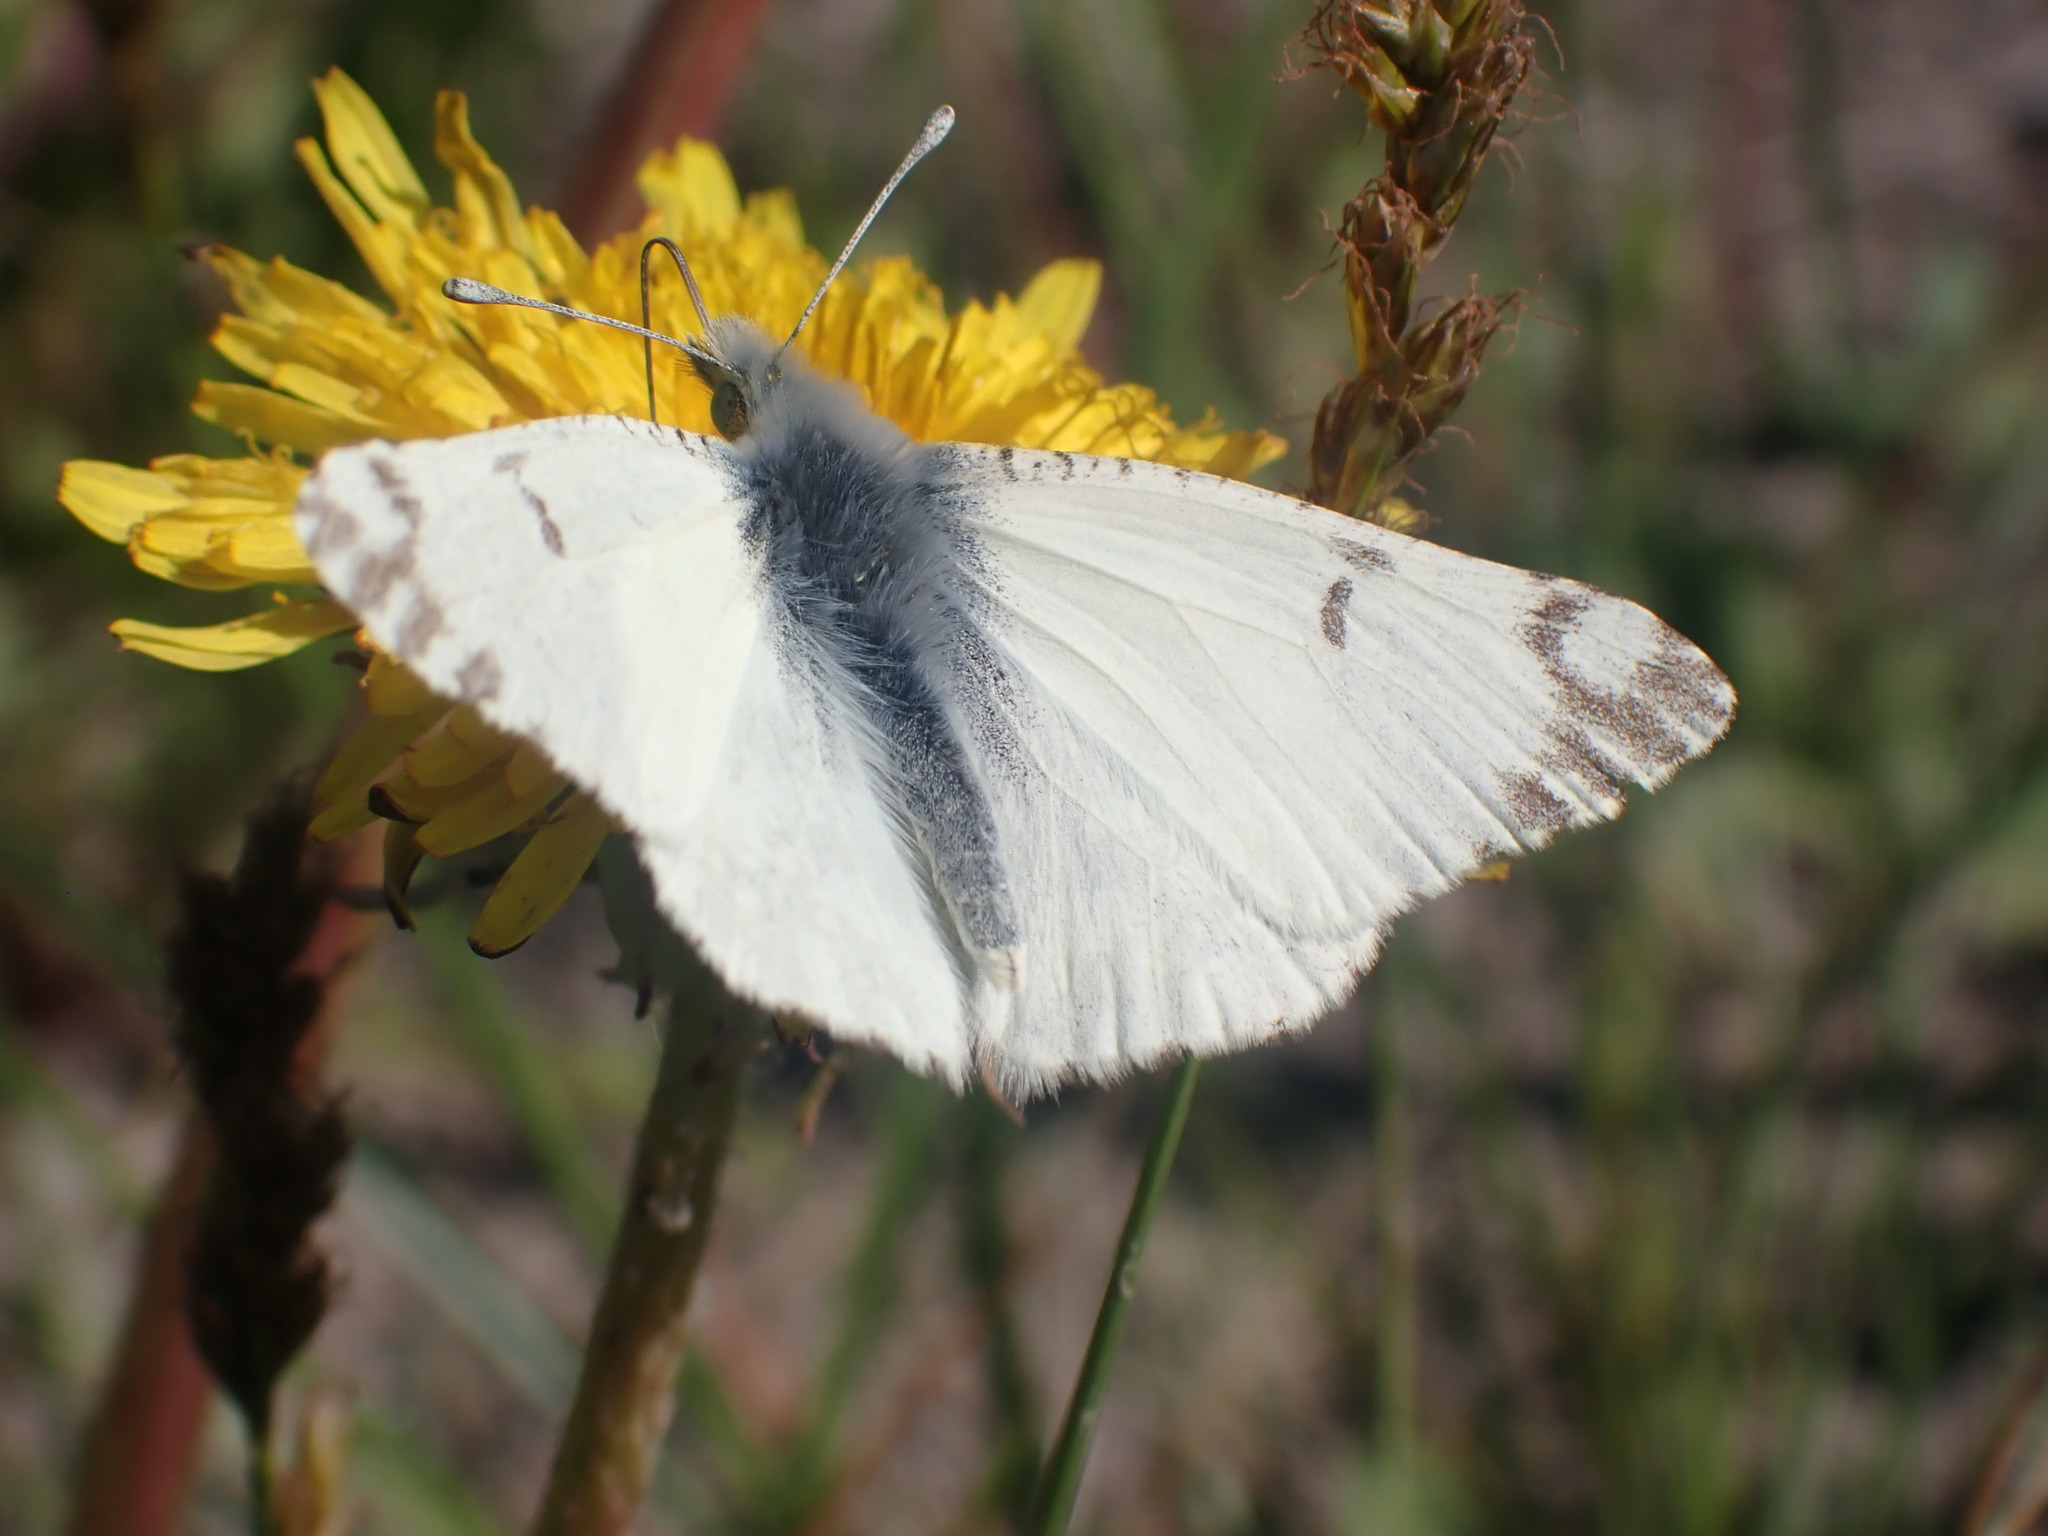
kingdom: Animalia
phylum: Arthropoda
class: Insecta
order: Lepidoptera
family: Pieridae
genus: Euchloe
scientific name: Euchloe ausonides
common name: Creamy marblewing
